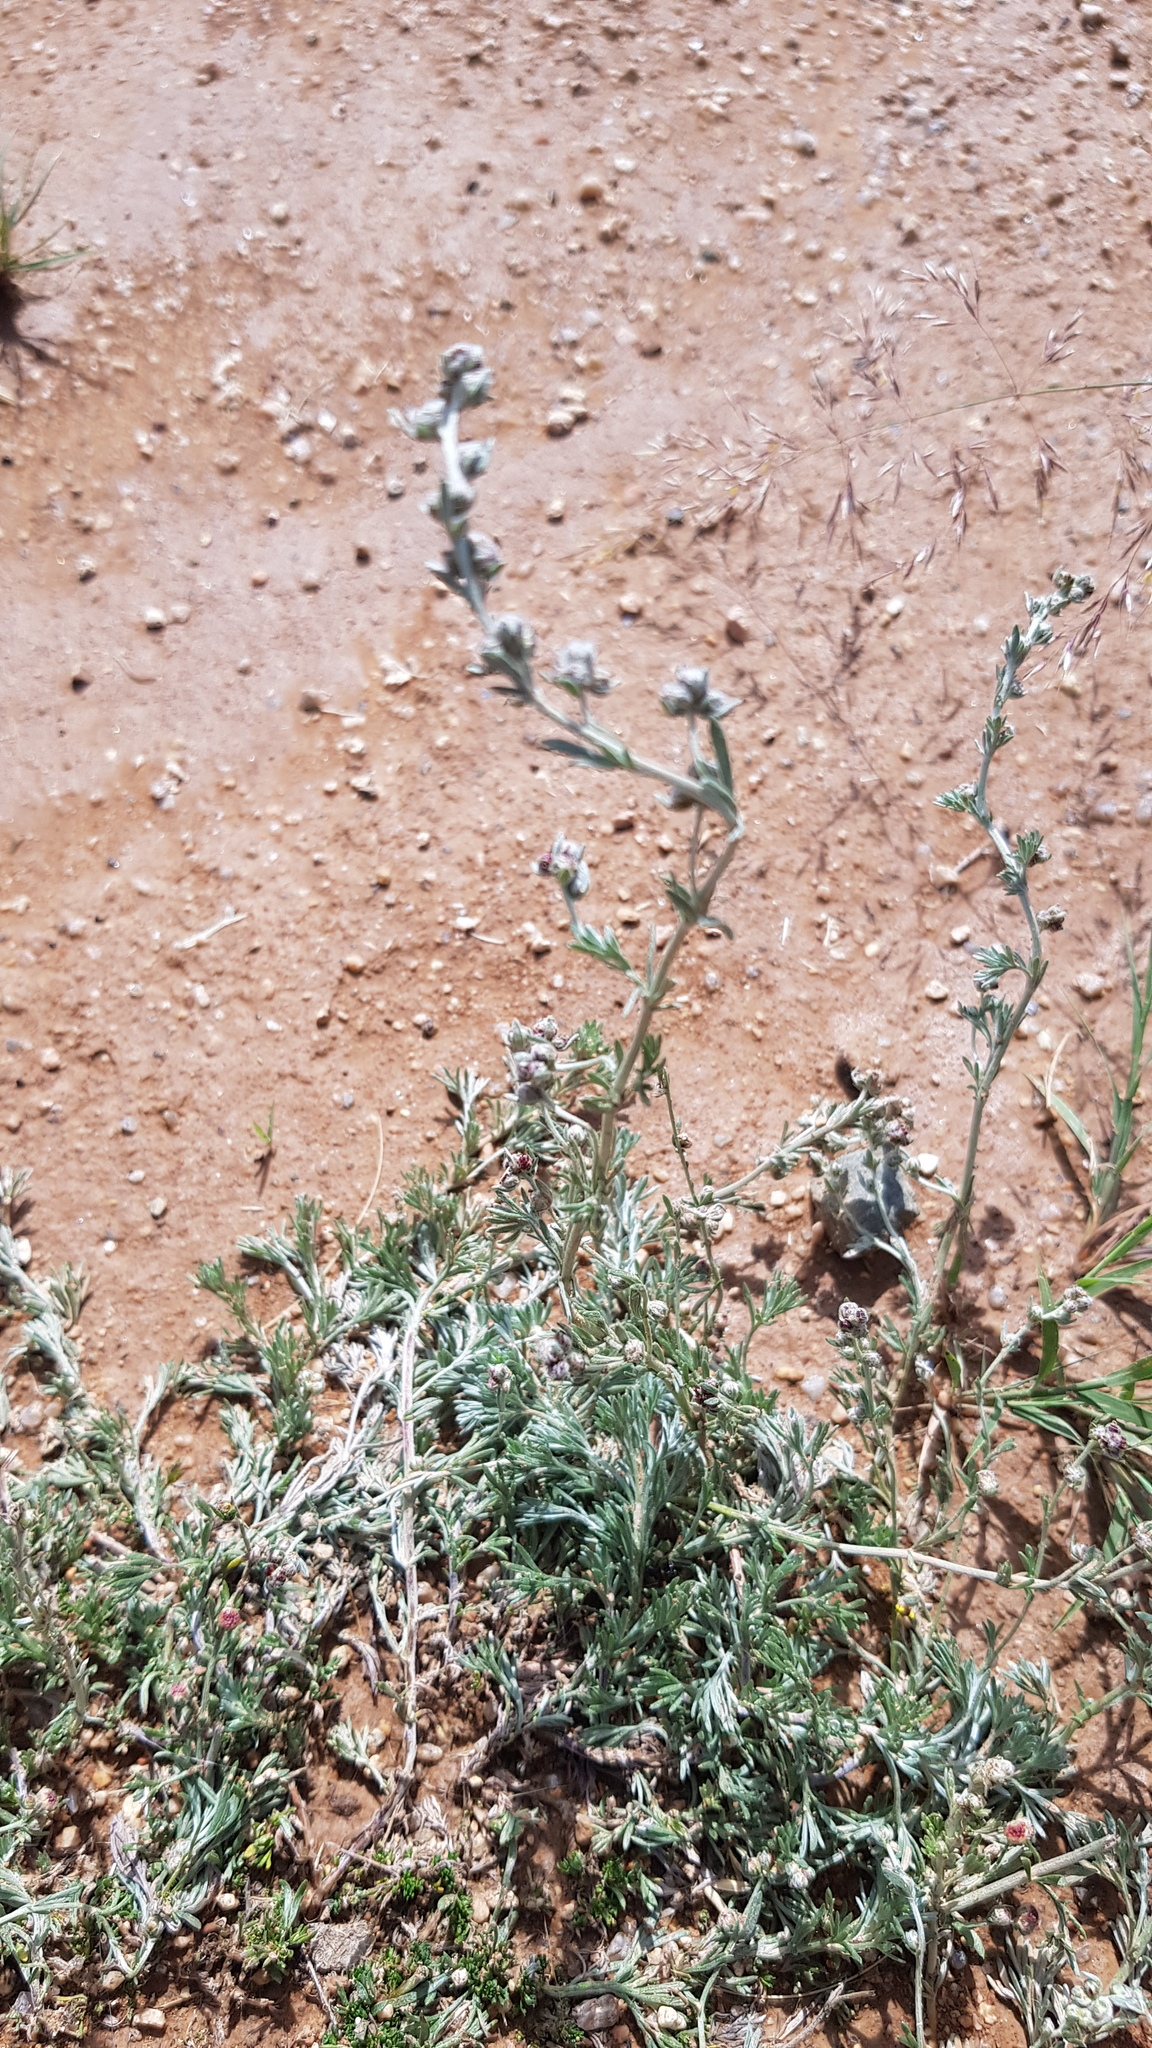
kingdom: Plantae
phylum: Tracheophyta
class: Magnoliopsida
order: Asterales
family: Asteraceae
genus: Artemisia
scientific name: Artemisia frigida
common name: Prairie sagewort
